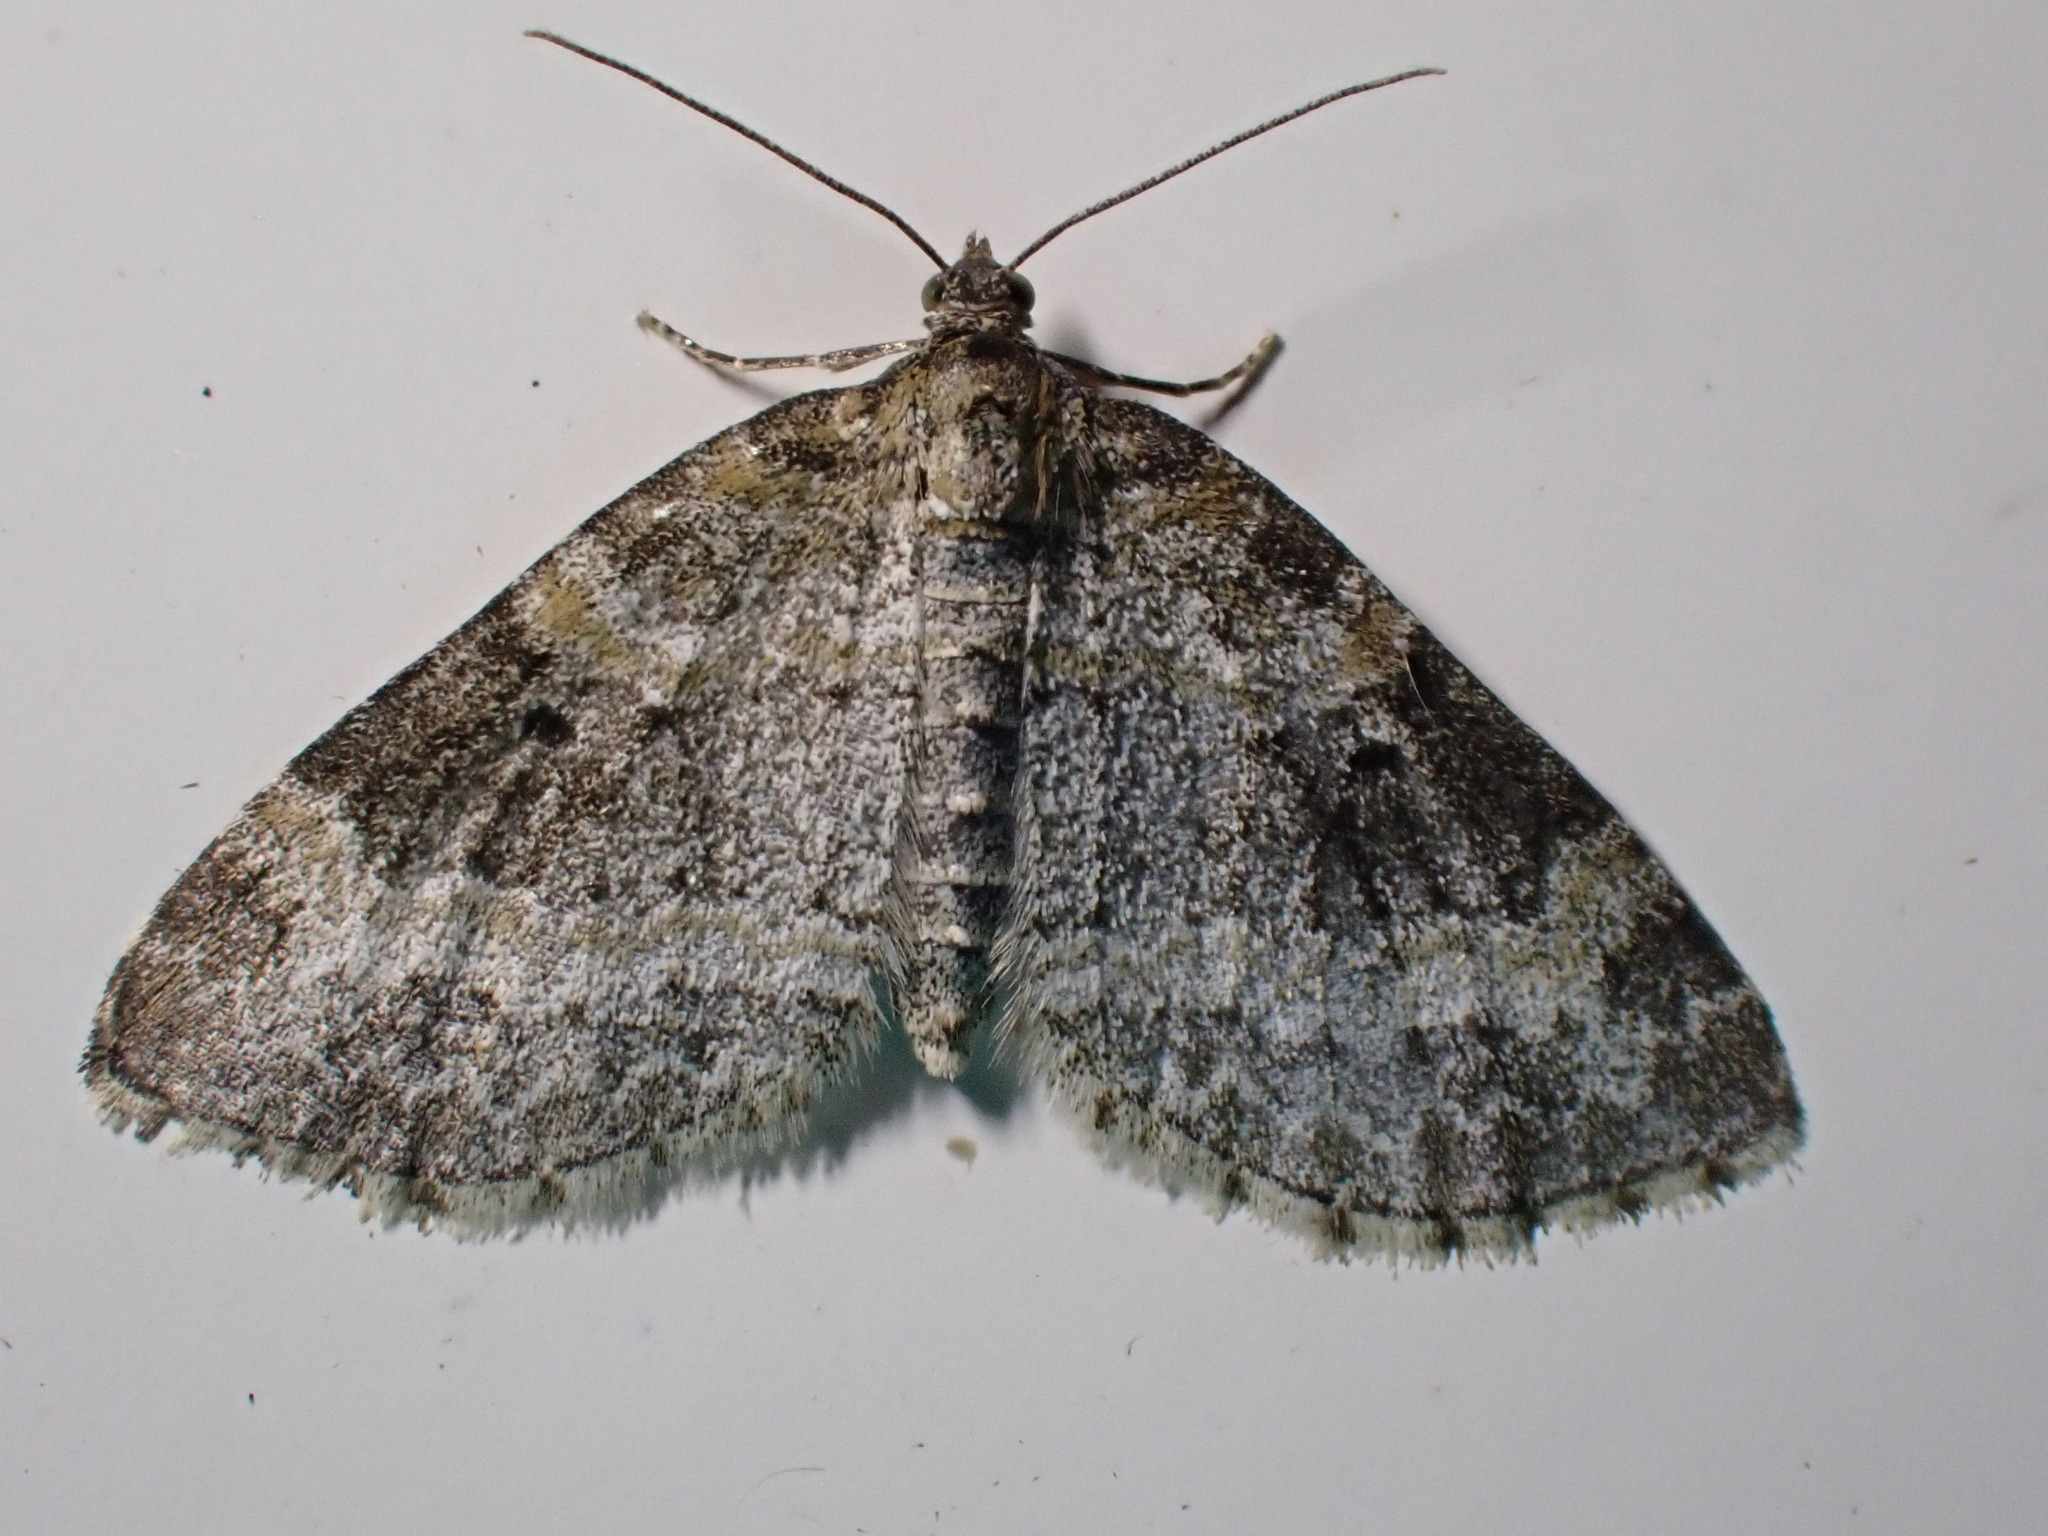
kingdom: Animalia
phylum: Arthropoda
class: Insecta
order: Lepidoptera
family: Geometridae
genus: Pterapherapteryx
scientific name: Pterapherapteryx sexalata
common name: Small seraphim
